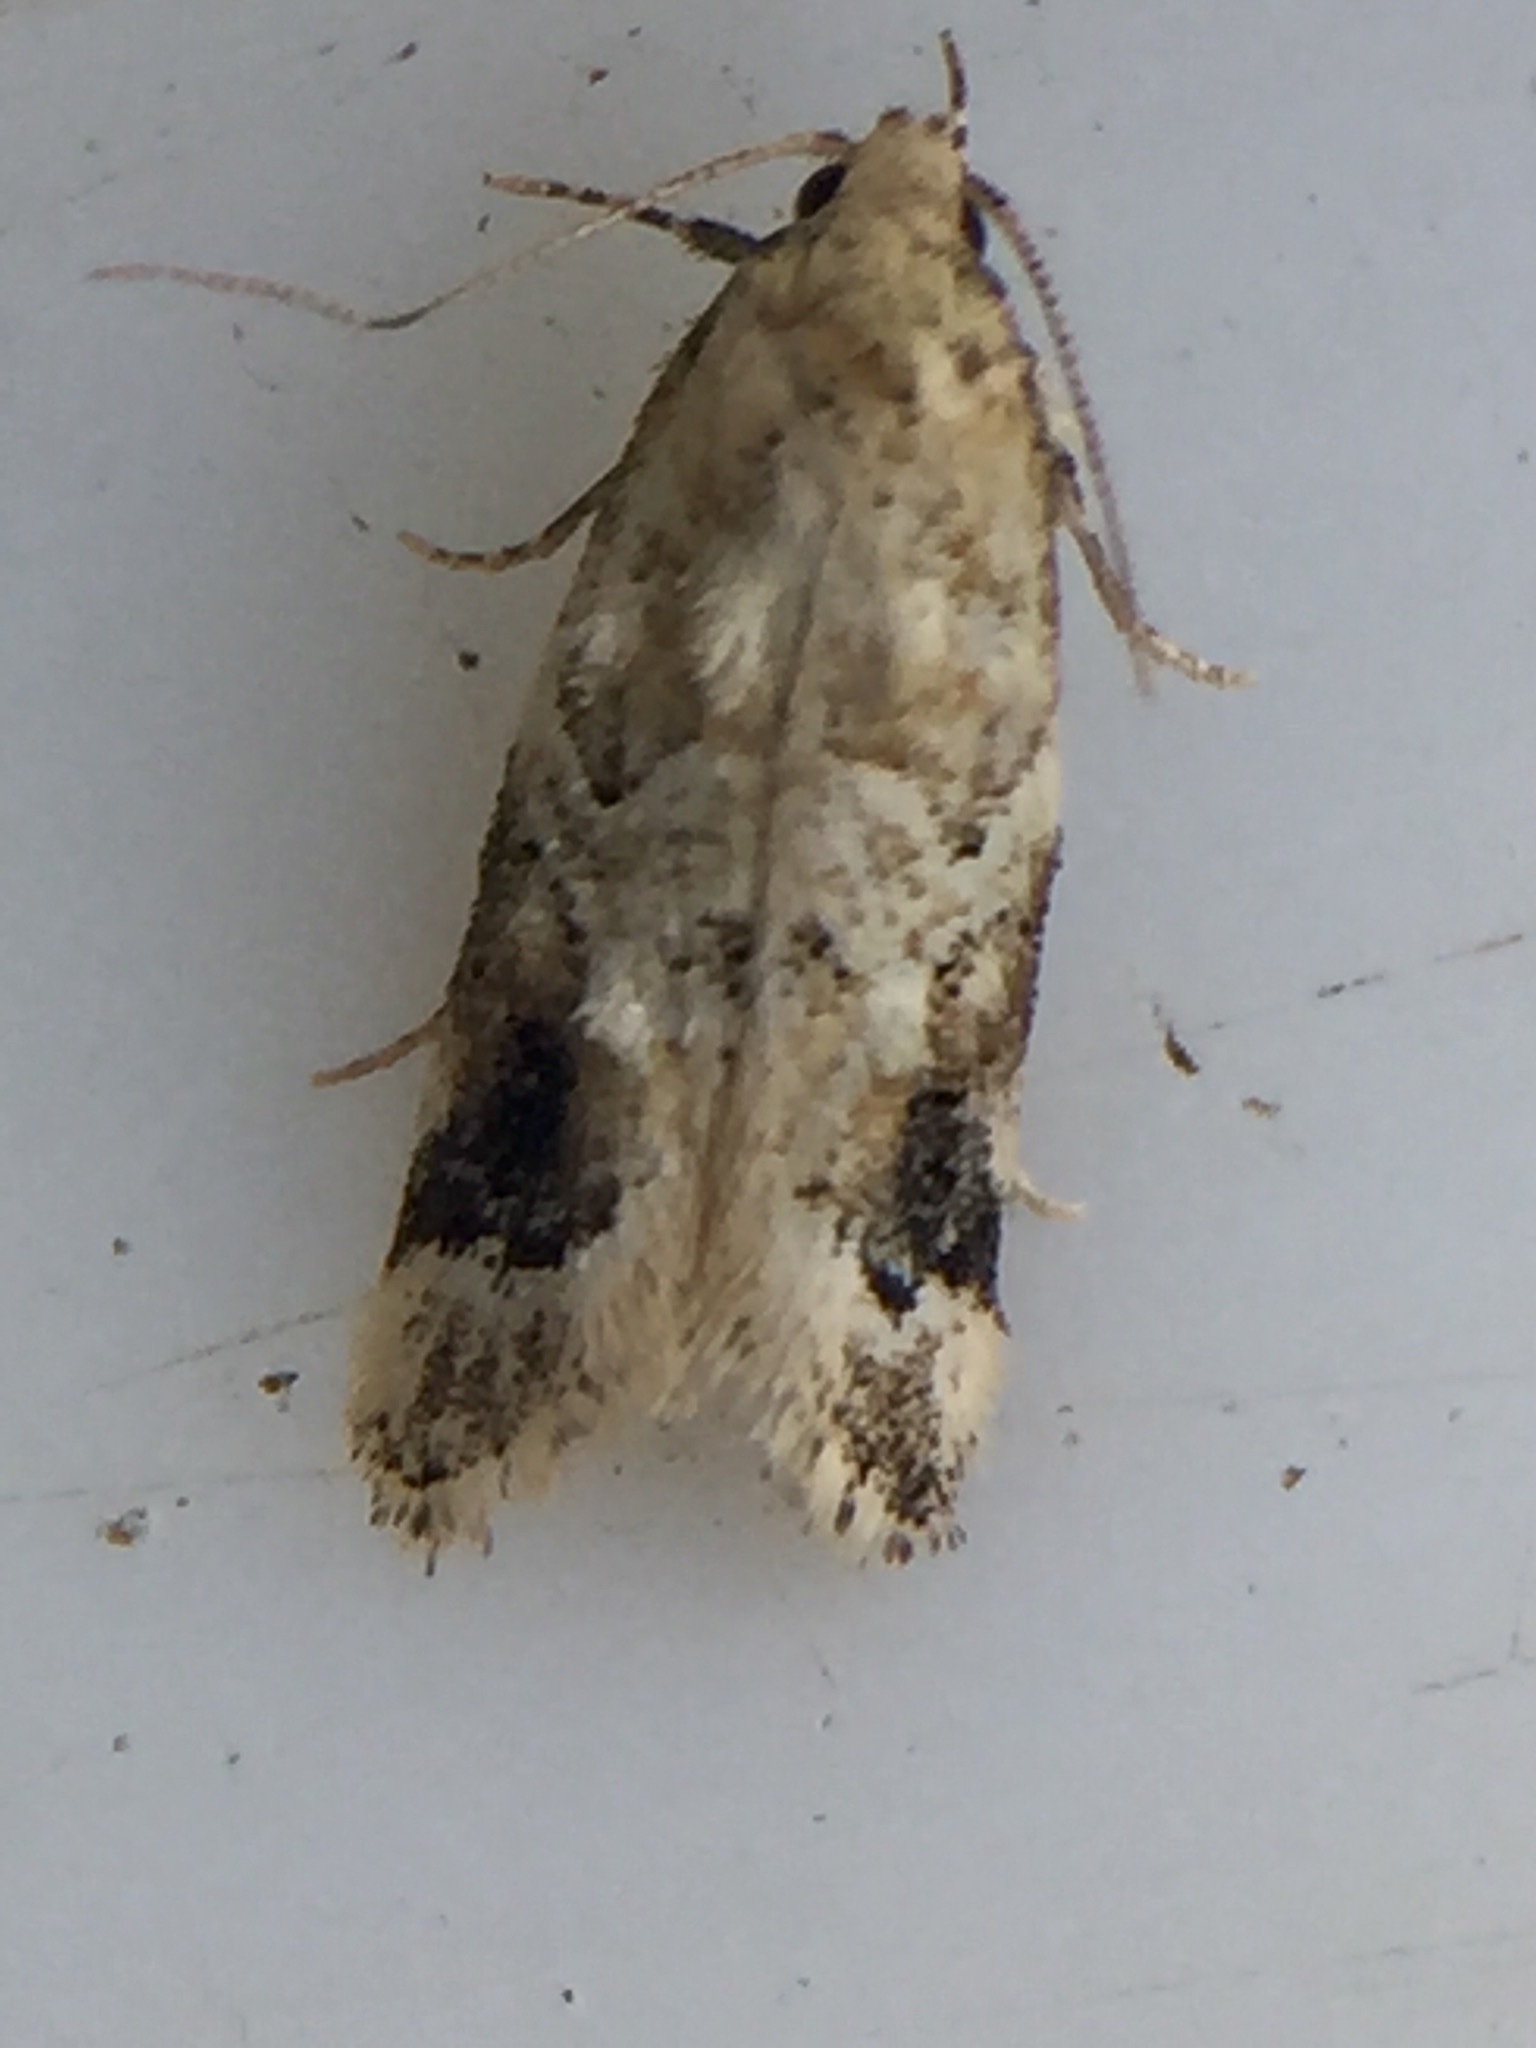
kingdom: Animalia
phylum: Arthropoda
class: Insecta
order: Lepidoptera
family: Oecophoridae
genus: Trachypepla
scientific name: Trachypepla aspidephora
